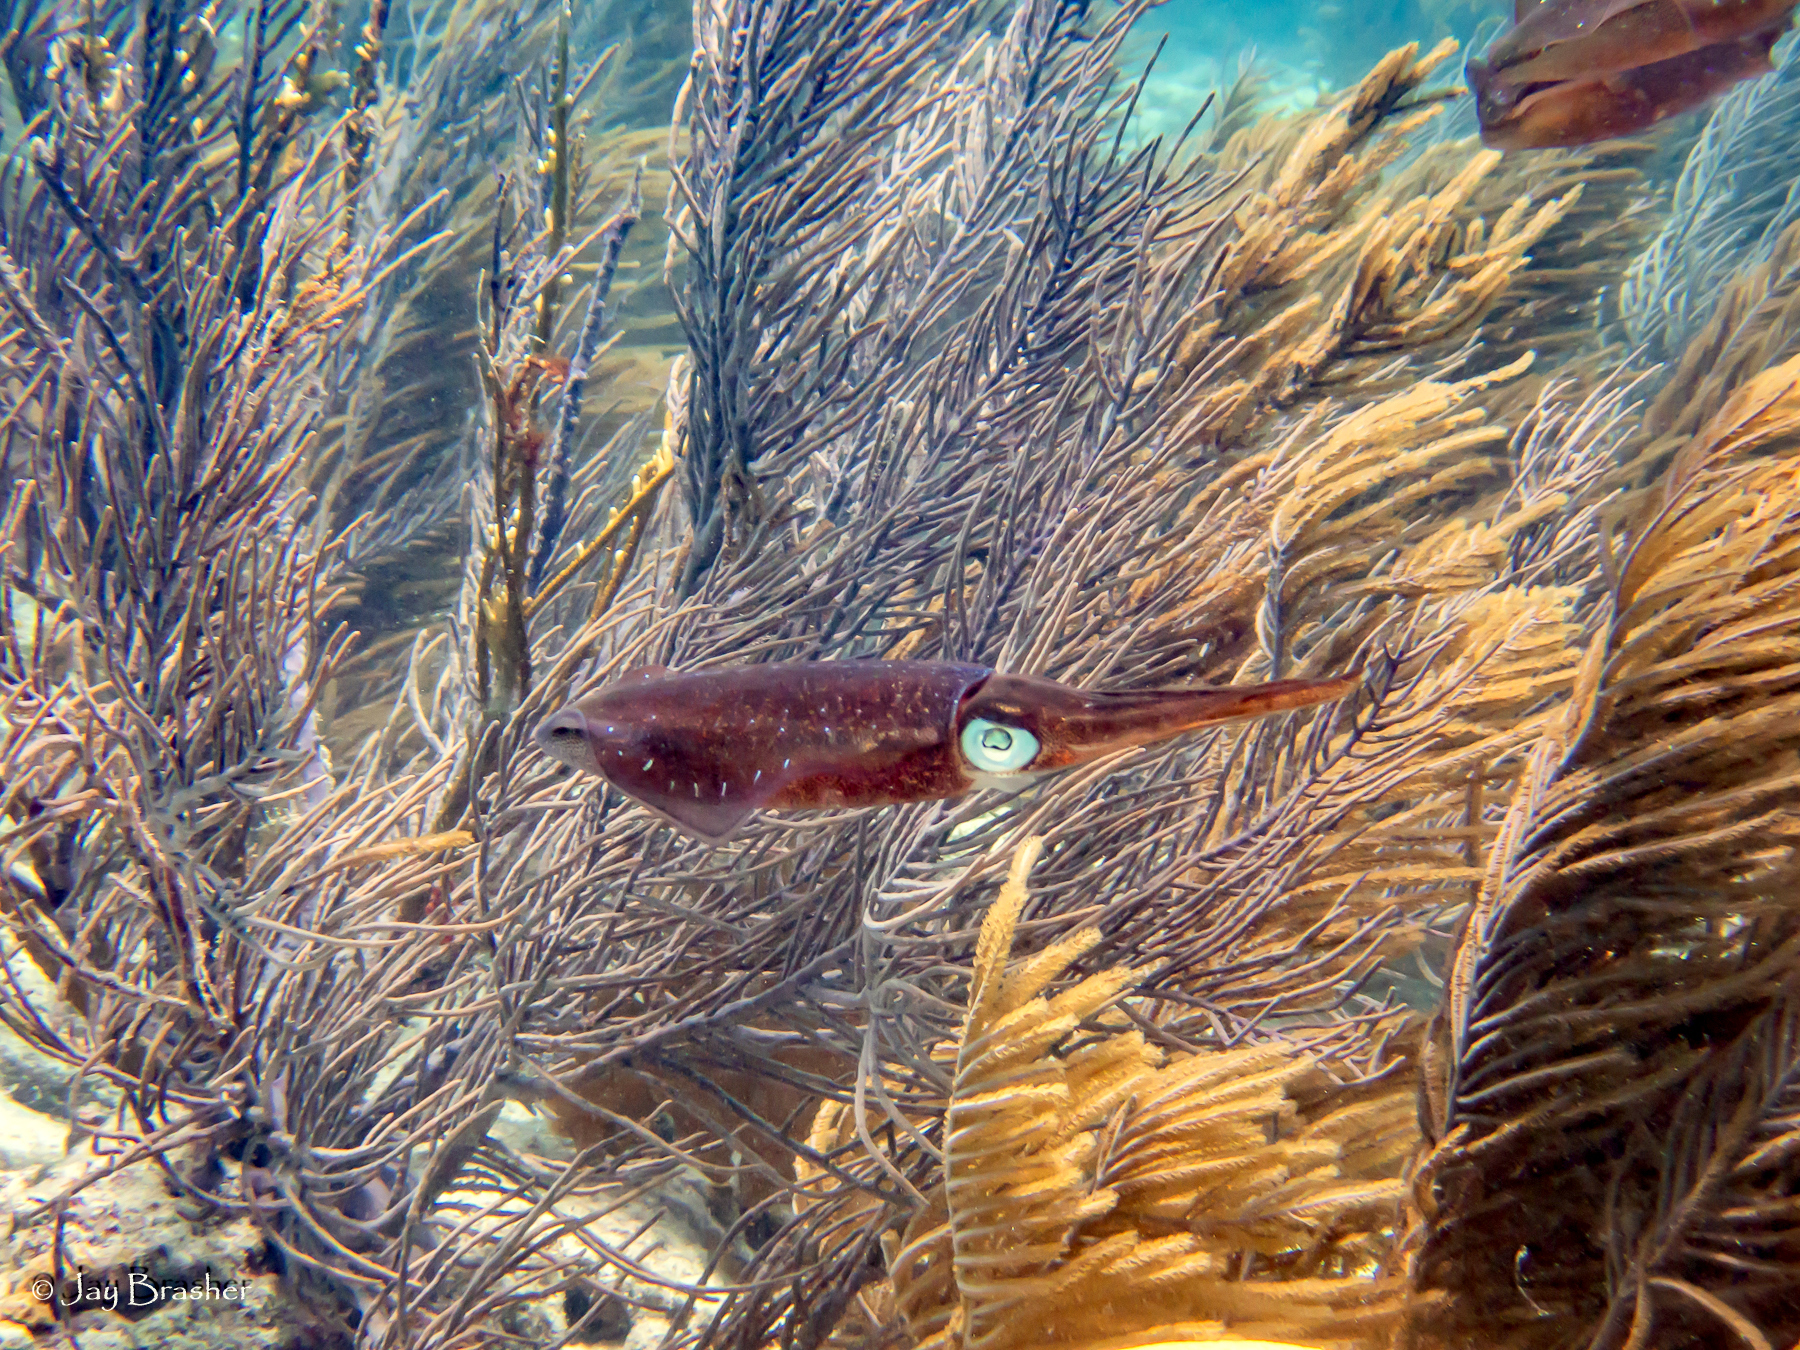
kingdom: Animalia
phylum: Mollusca
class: Cephalopoda
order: Myopsida
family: Loliginidae
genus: Sepioteuthis
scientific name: Sepioteuthis sepioidea
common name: Caribbean reef squid
